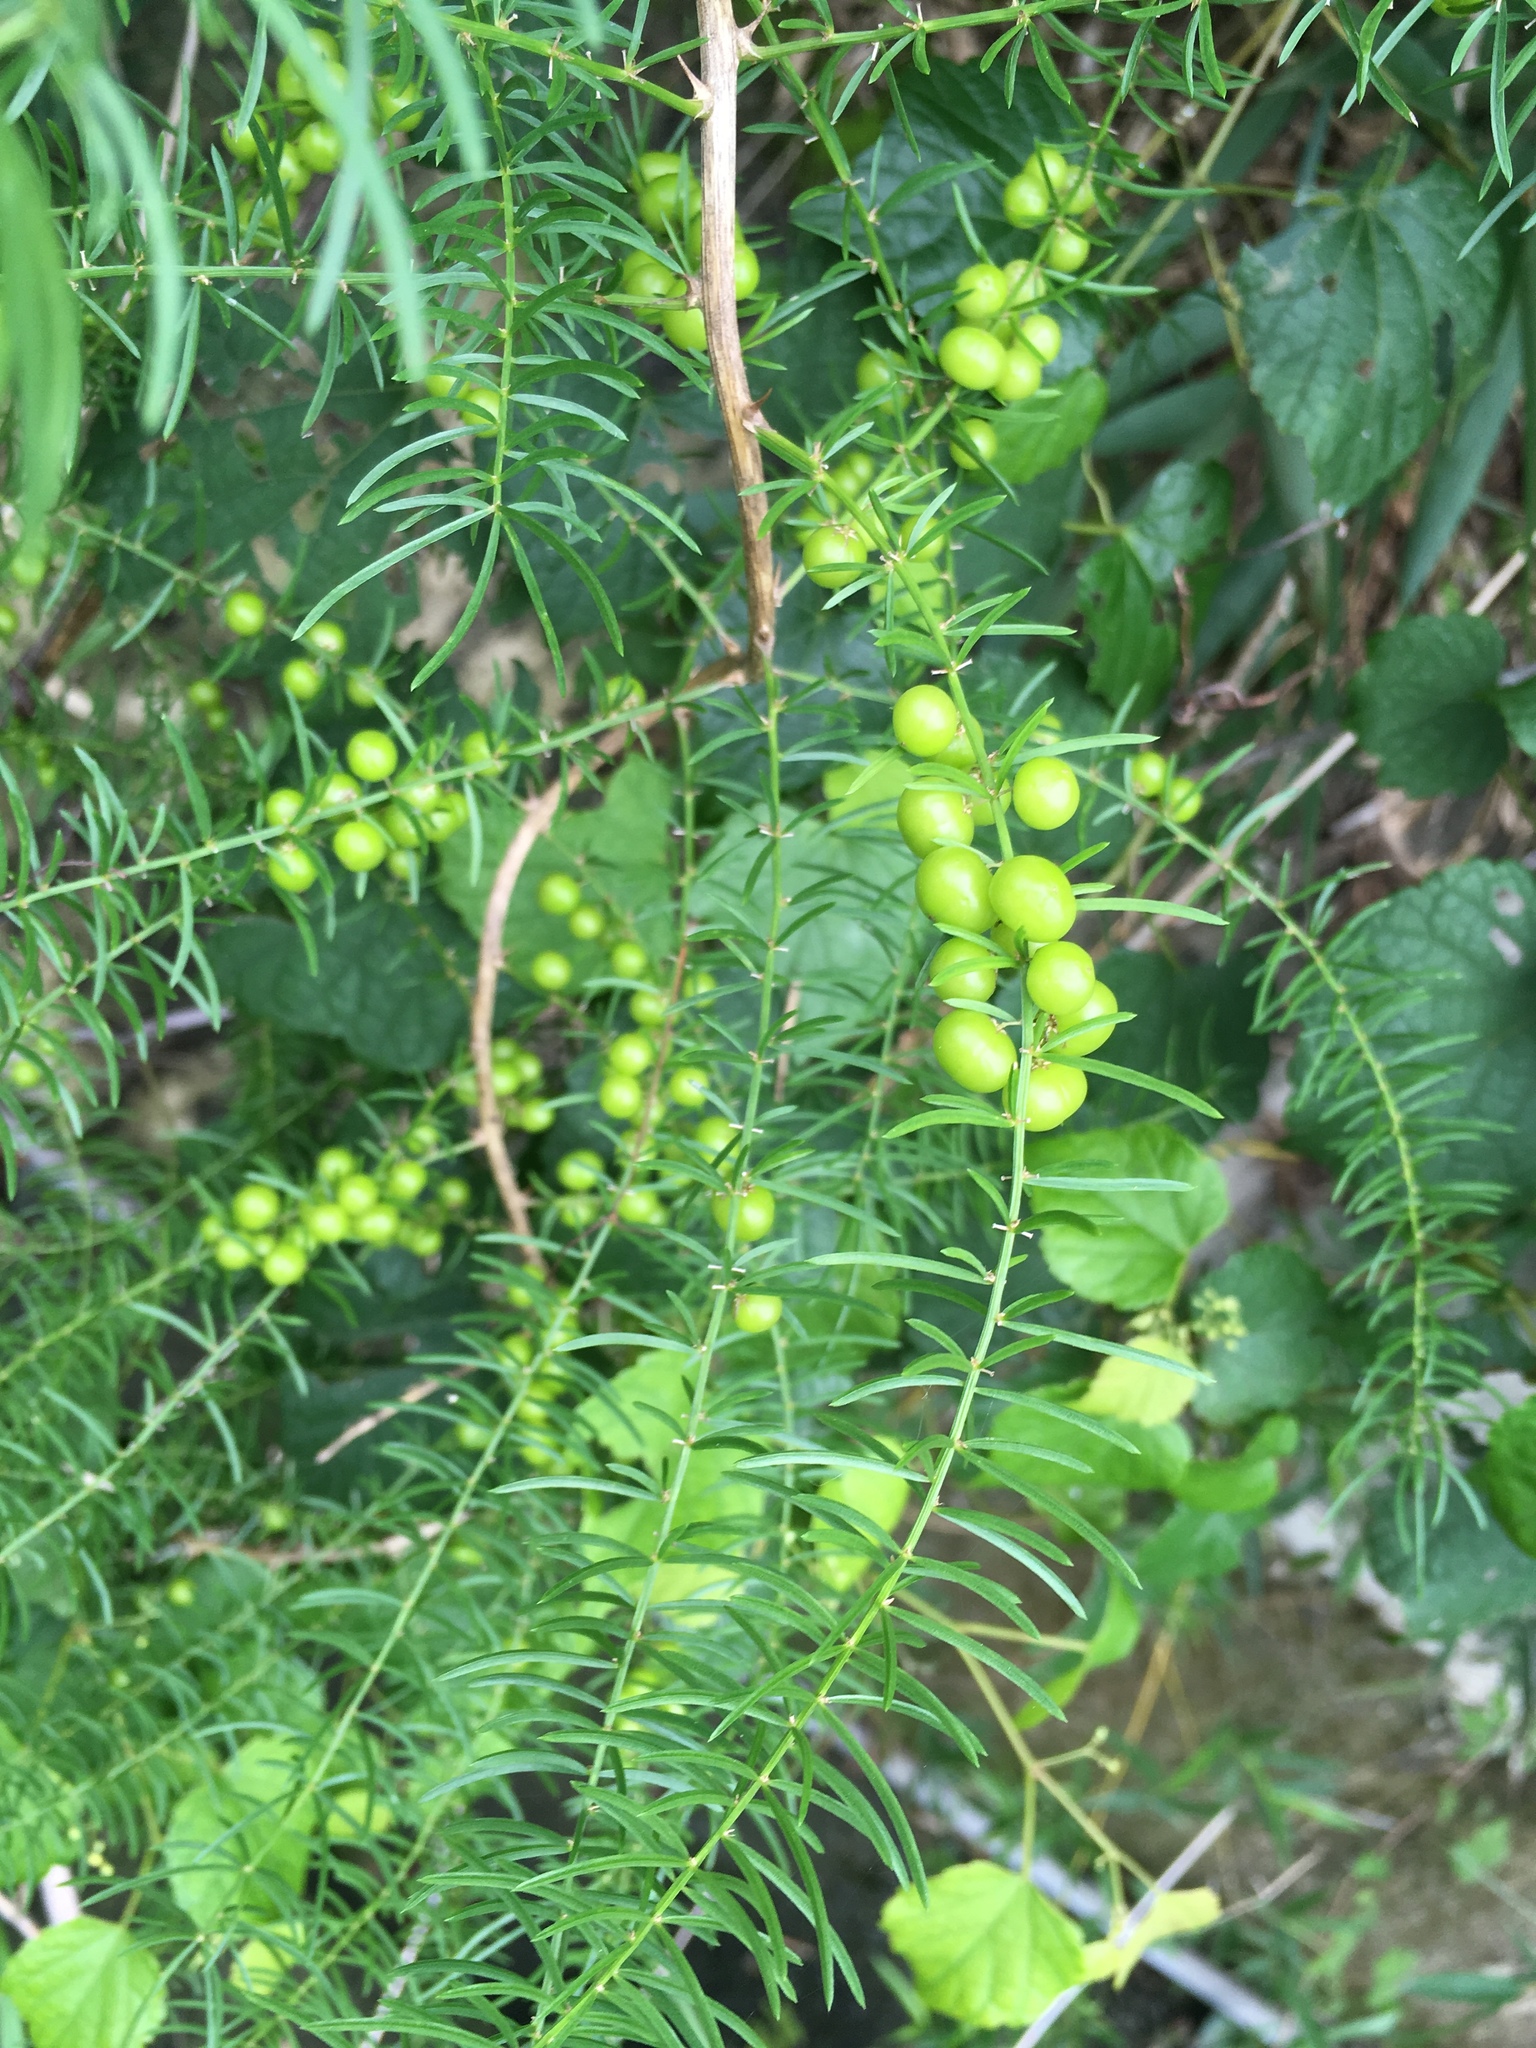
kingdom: Plantae
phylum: Tracheophyta
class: Liliopsida
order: Asparagales
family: Asparagaceae
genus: Asparagus
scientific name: Asparagus cochinchinensis
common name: Chinese asparagus
